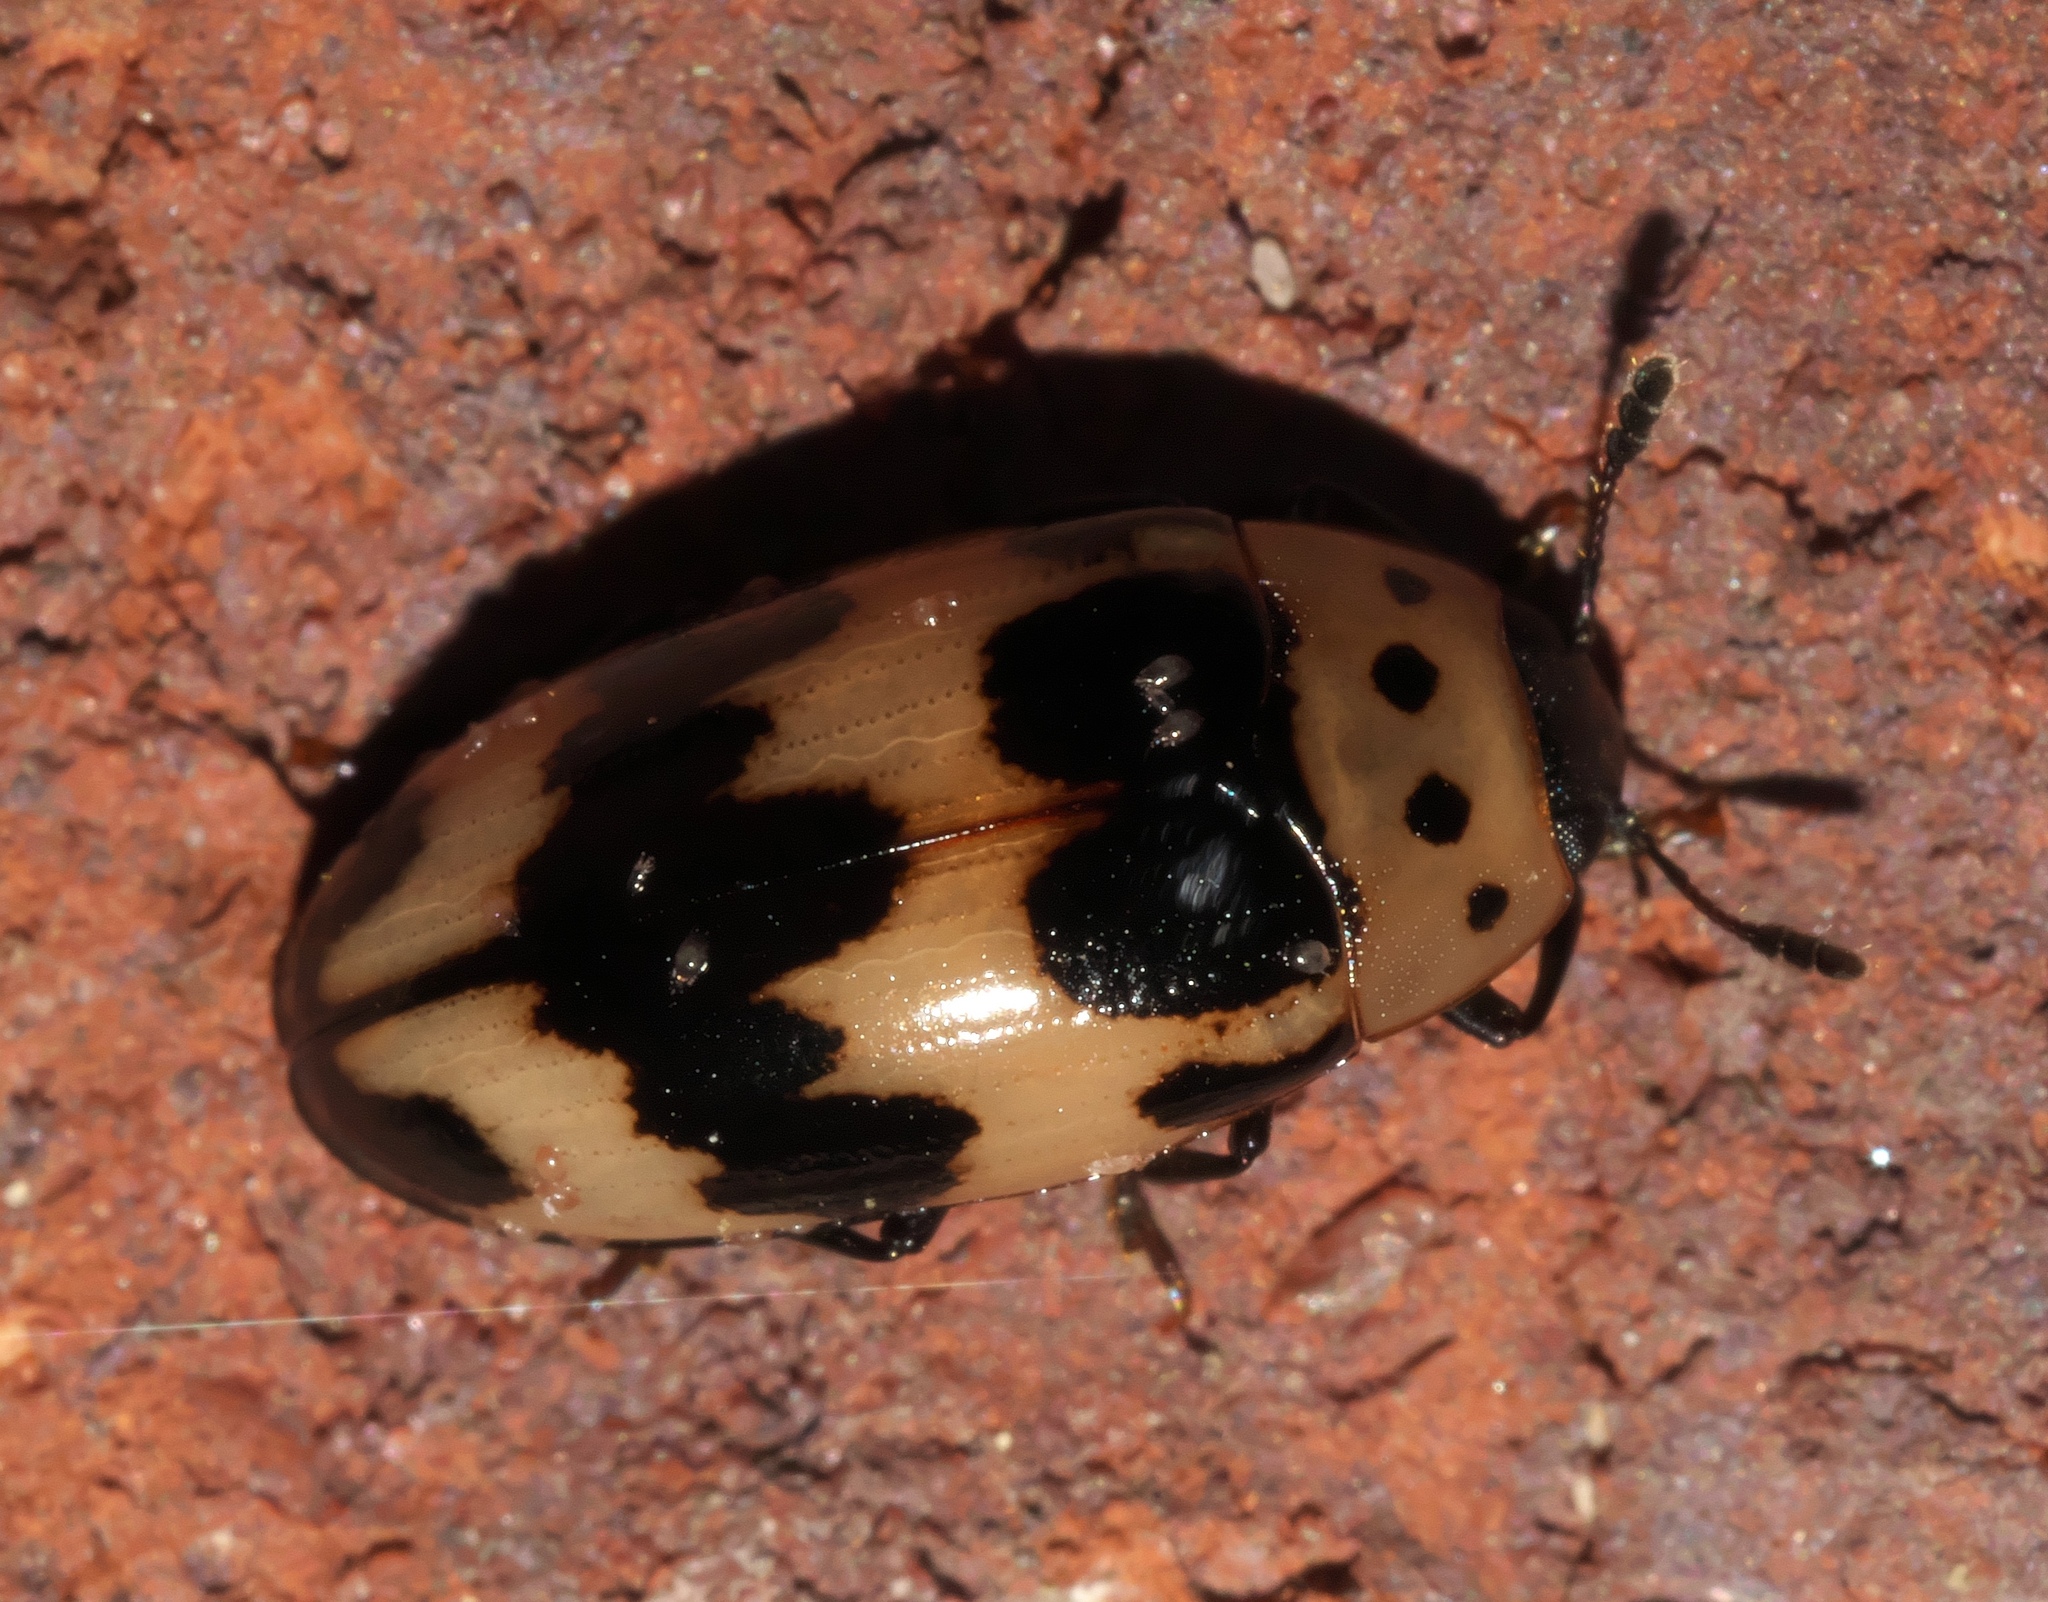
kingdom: Animalia
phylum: Arthropoda
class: Insecta
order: Coleoptera
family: Erotylidae
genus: Ischyrus
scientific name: Ischyrus quadripunctatus
